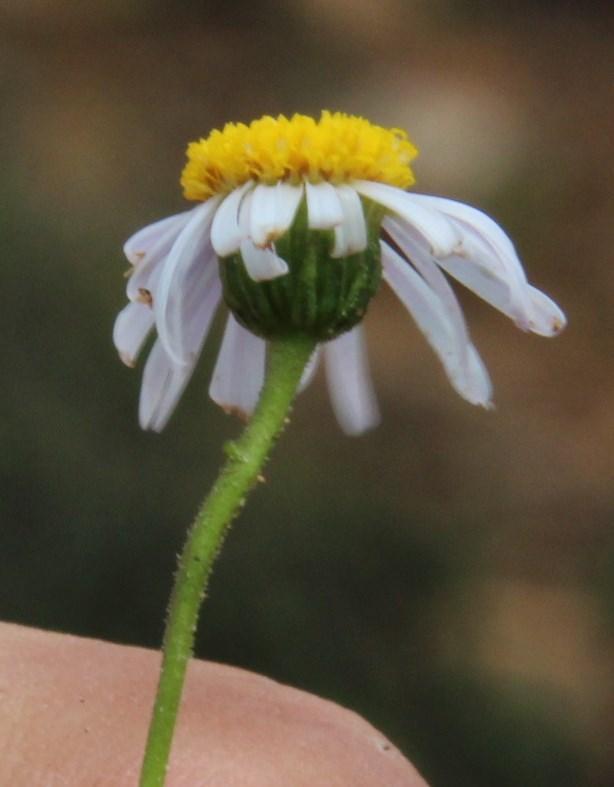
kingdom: Plantae
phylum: Tracheophyta
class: Magnoliopsida
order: Asterales
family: Asteraceae
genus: Felicia
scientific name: Felicia muricata
